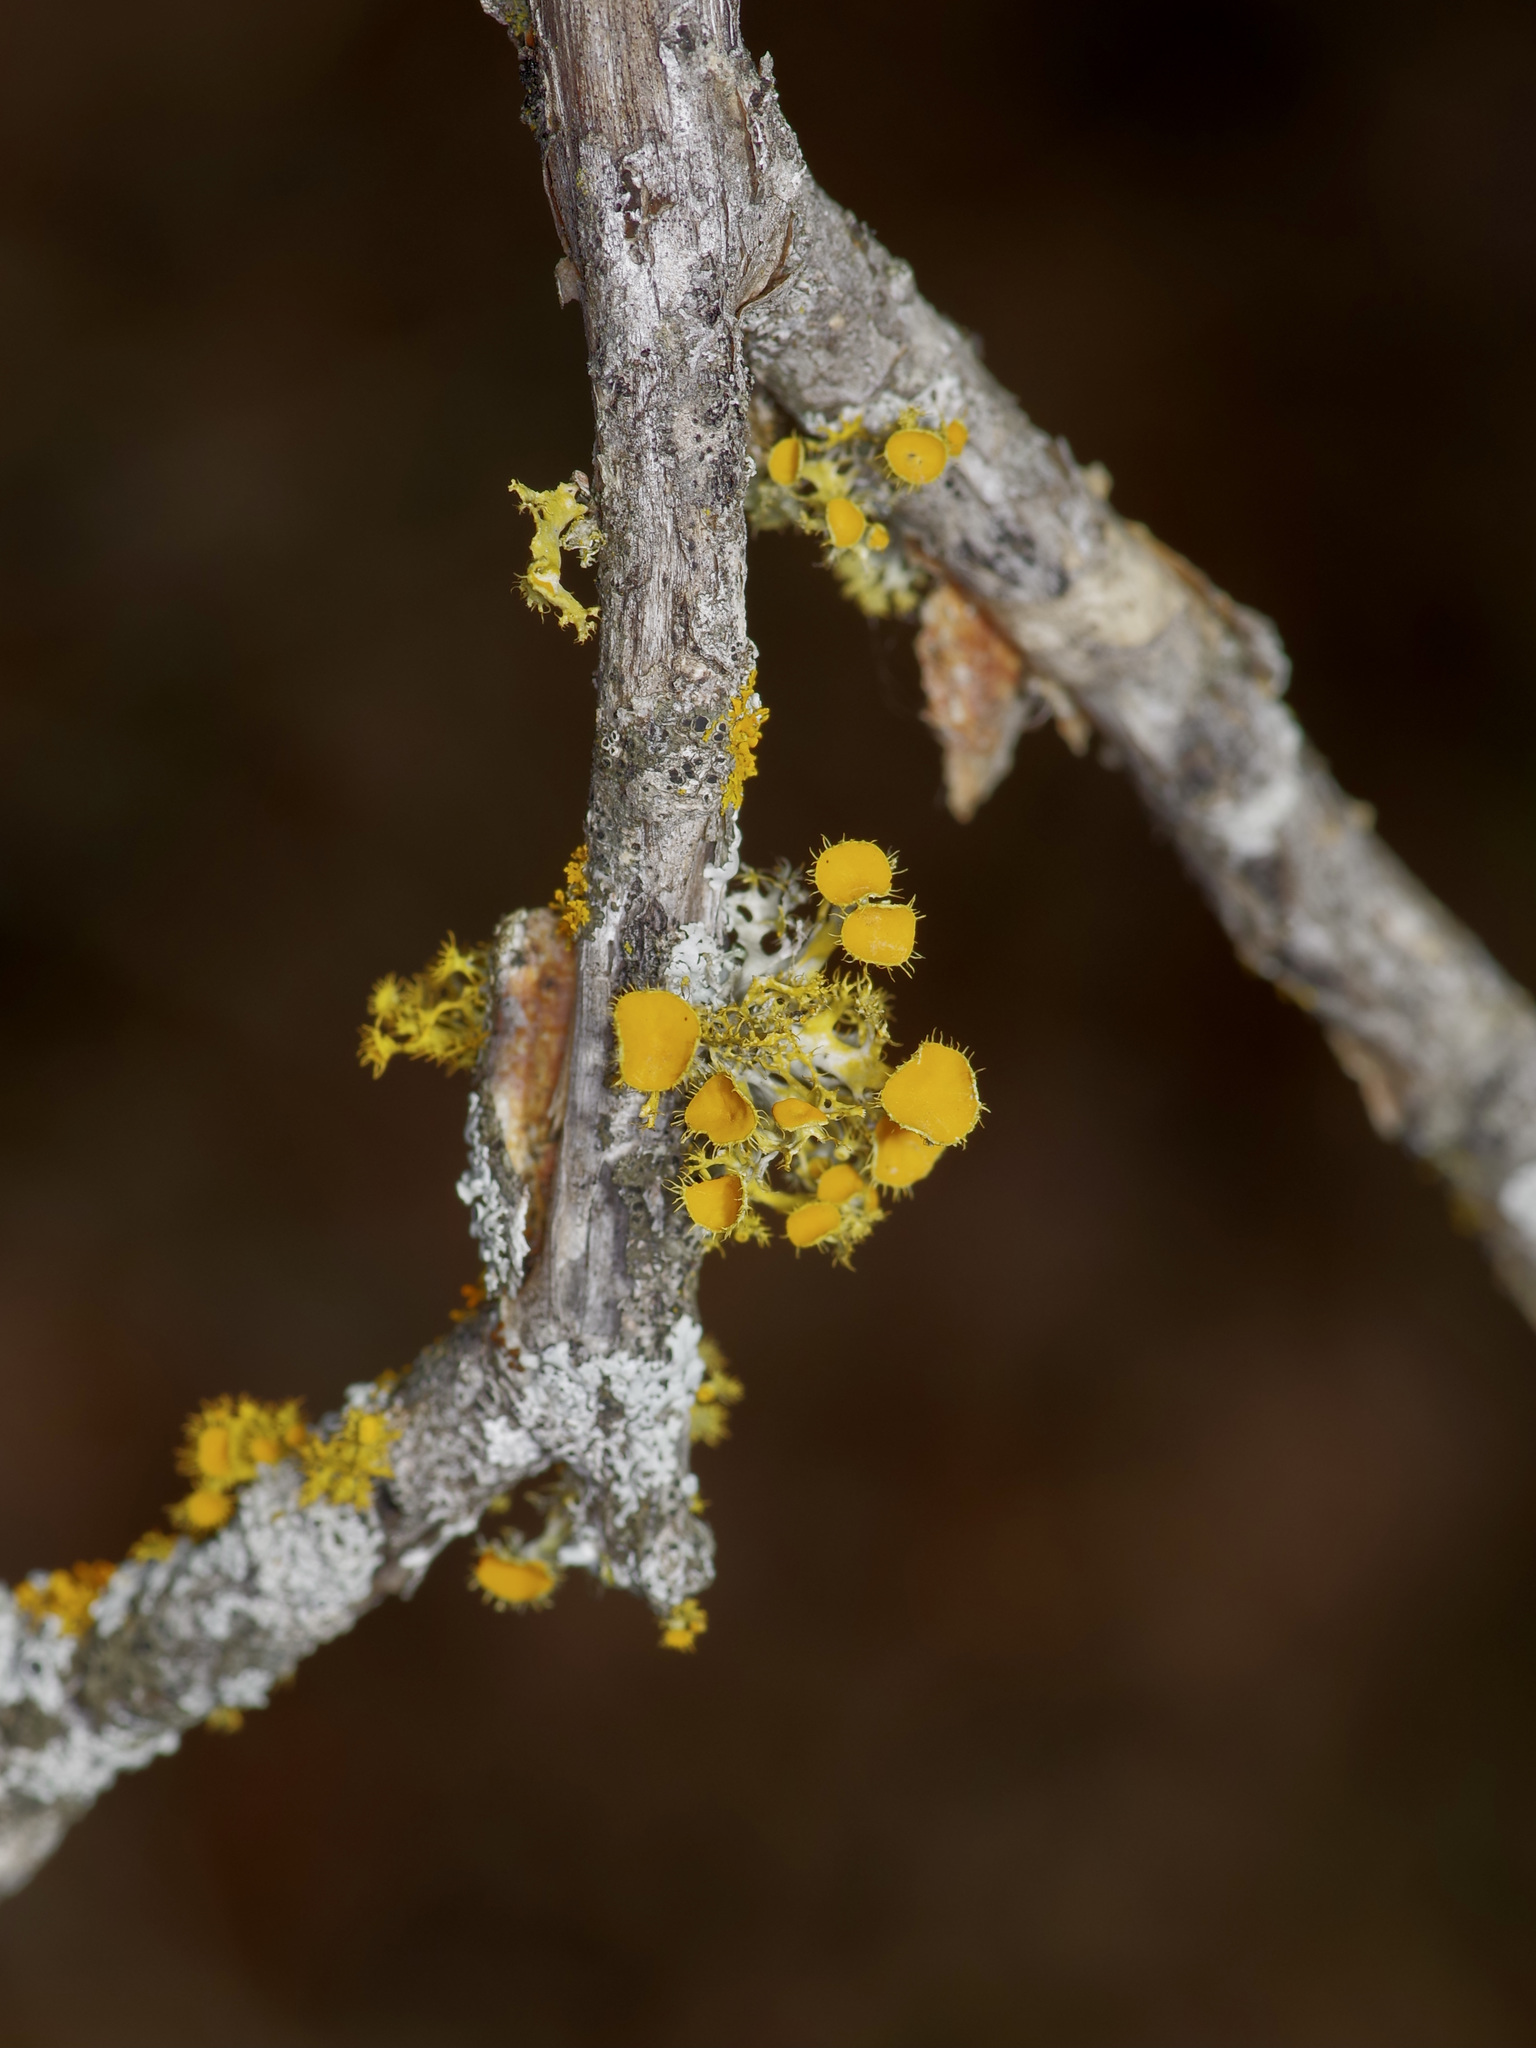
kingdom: Fungi
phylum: Ascomycota
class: Lecanoromycetes
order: Teloschistales
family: Teloschistaceae
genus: Niorma
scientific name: Niorma chrysophthalma
